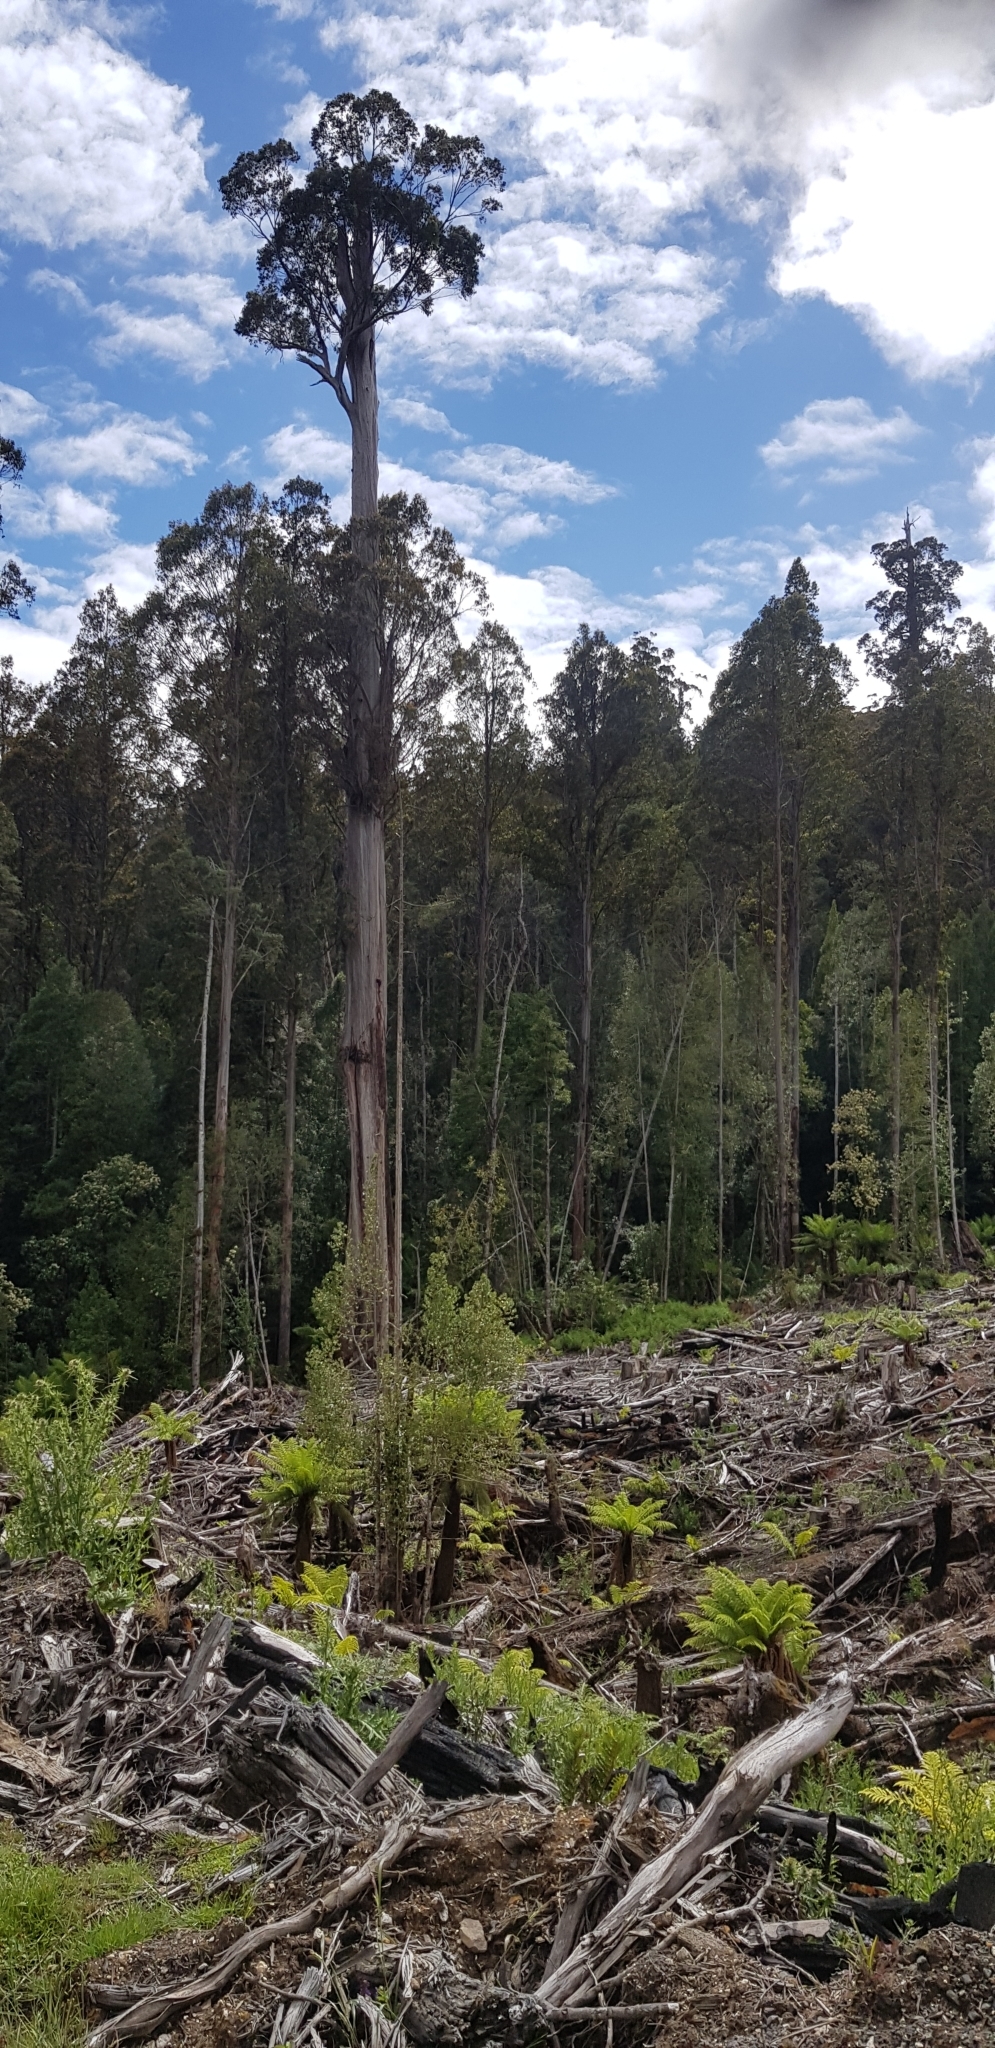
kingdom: Plantae
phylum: Tracheophyta
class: Magnoliopsida
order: Myrtales
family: Myrtaceae
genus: Eucalyptus
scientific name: Eucalyptus regnans
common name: Stringy gum
